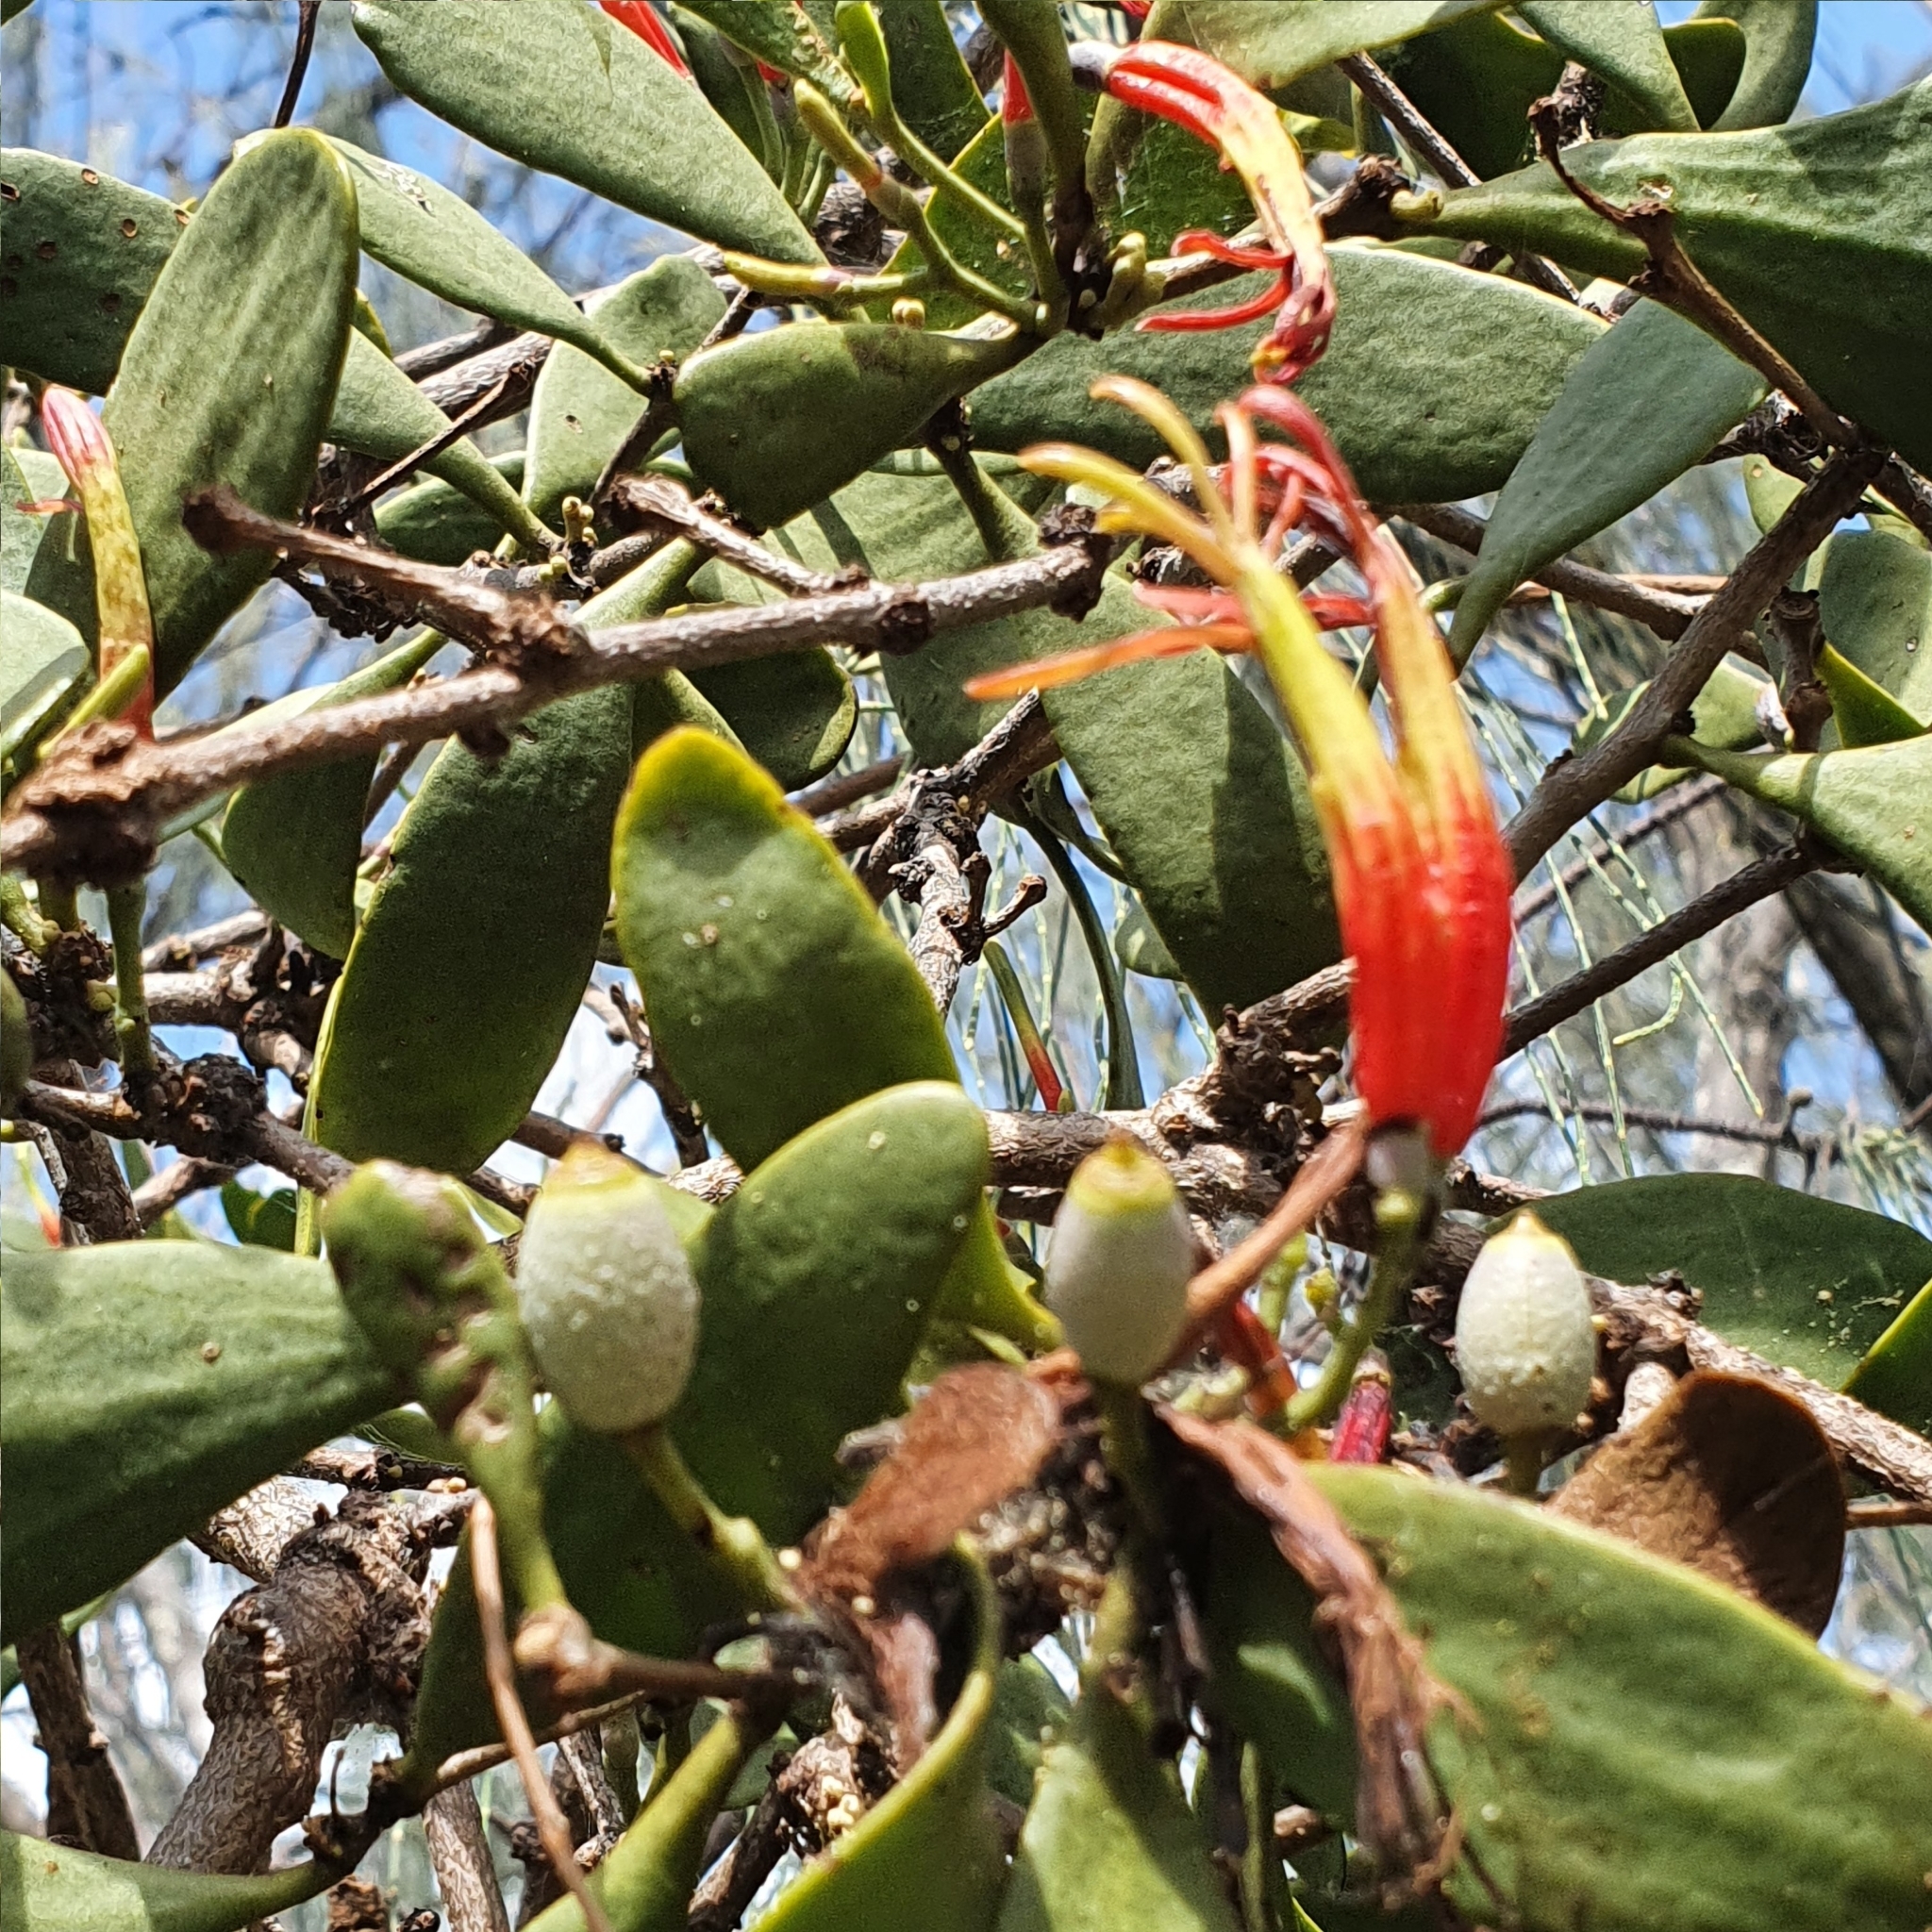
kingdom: Plantae
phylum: Tracheophyta
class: Magnoliopsida
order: Santalales
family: Loranthaceae
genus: Lysiana
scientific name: Lysiana maritima
